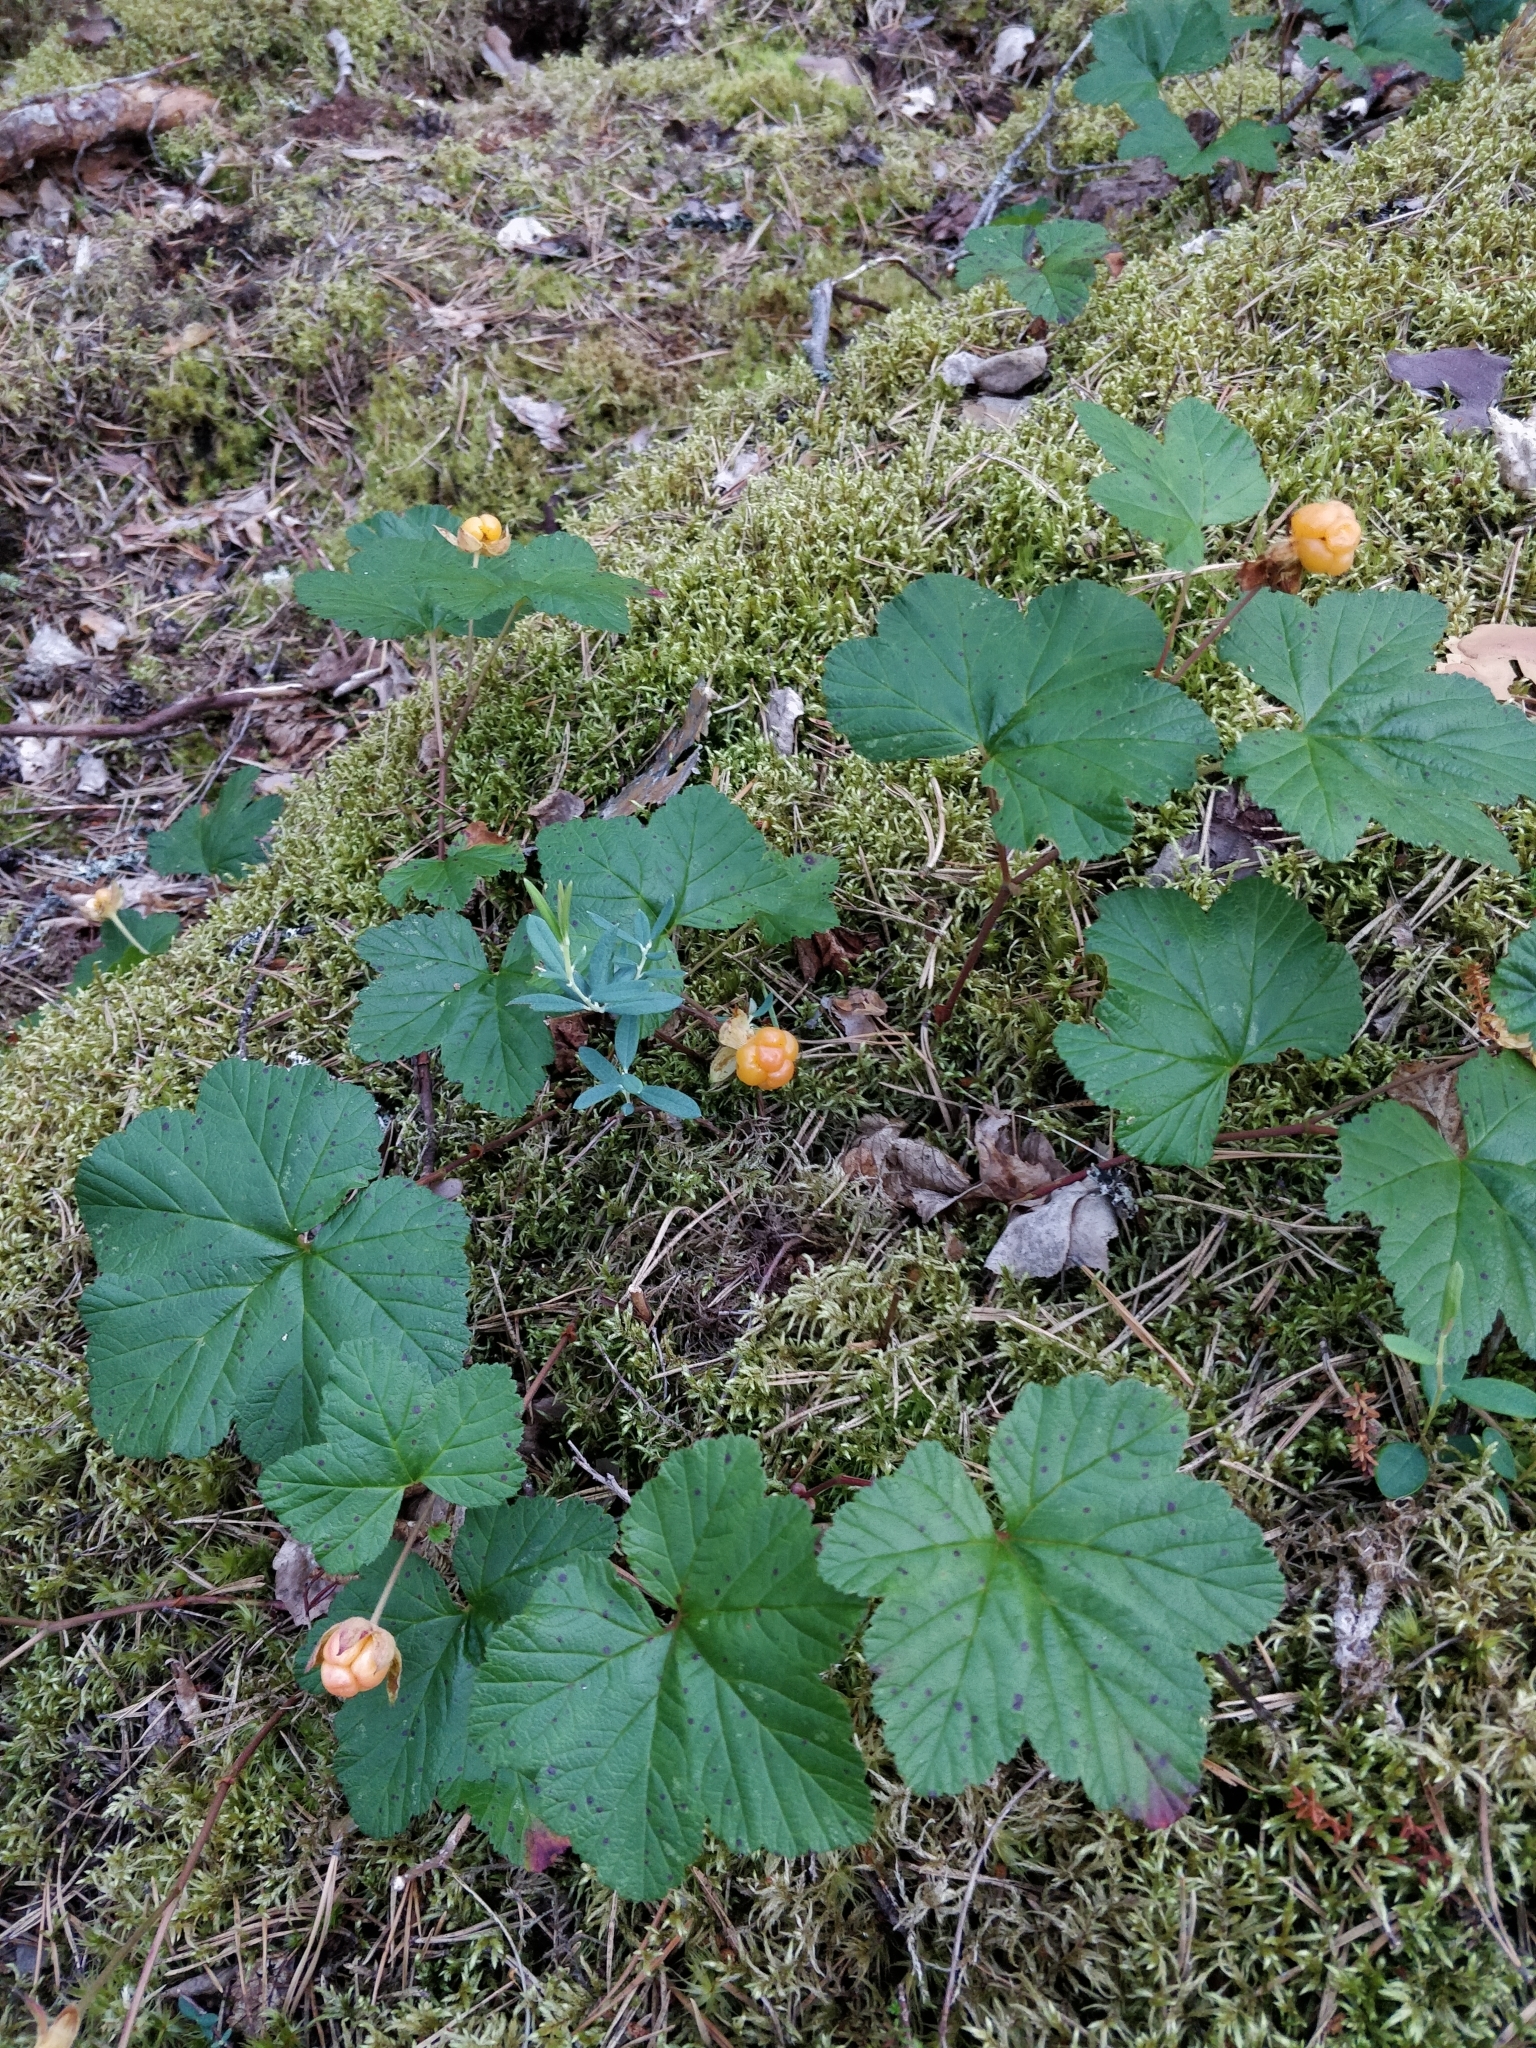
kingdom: Plantae
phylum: Tracheophyta
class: Magnoliopsida
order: Rosales
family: Rosaceae
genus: Rubus
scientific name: Rubus chamaemorus
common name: Cloudberry
